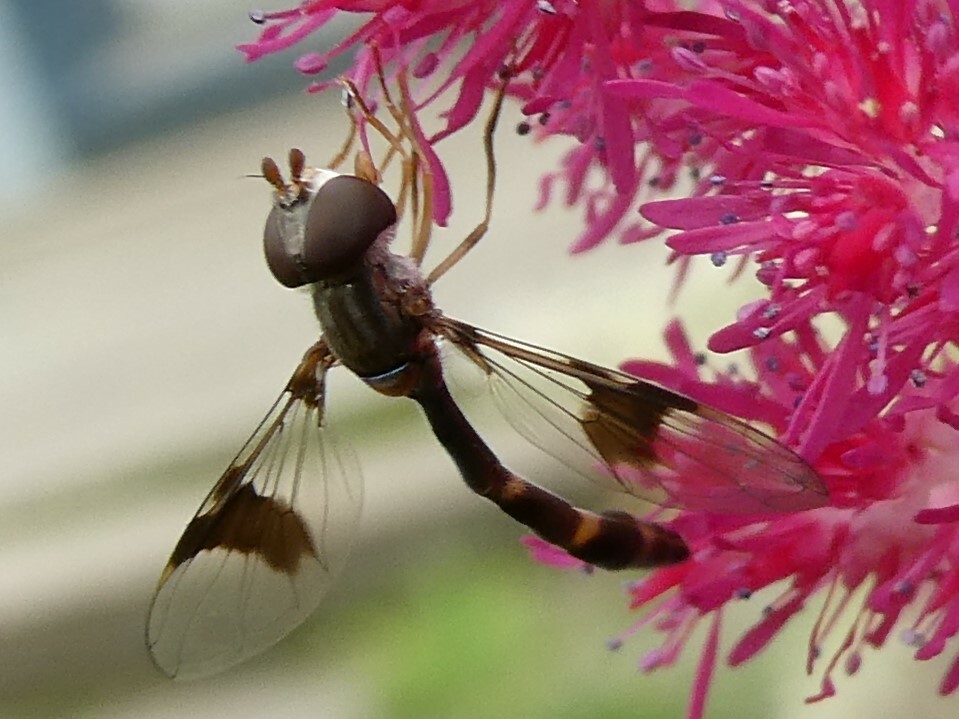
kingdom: Animalia
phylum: Arthropoda
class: Insecta
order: Diptera
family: Syrphidae
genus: Hypocritanus
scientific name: Hypocritanus fascipennis
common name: Eastern band-winged hover fly
